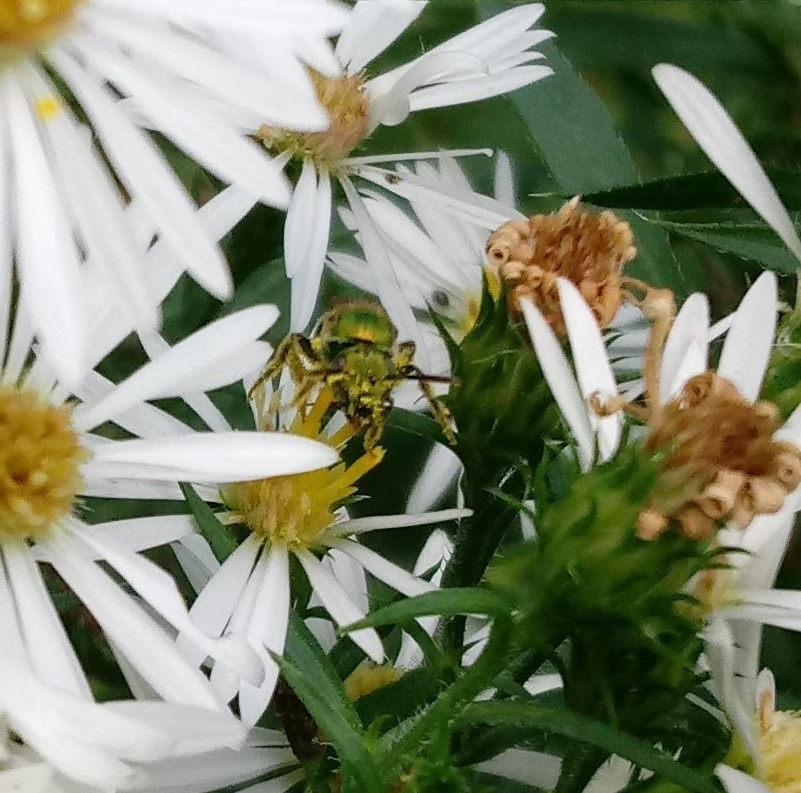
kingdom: Animalia
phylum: Arthropoda
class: Insecta
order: Hymenoptera
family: Halictidae
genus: Augochlora
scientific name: Augochlora pura
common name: Pure green sweat bee
